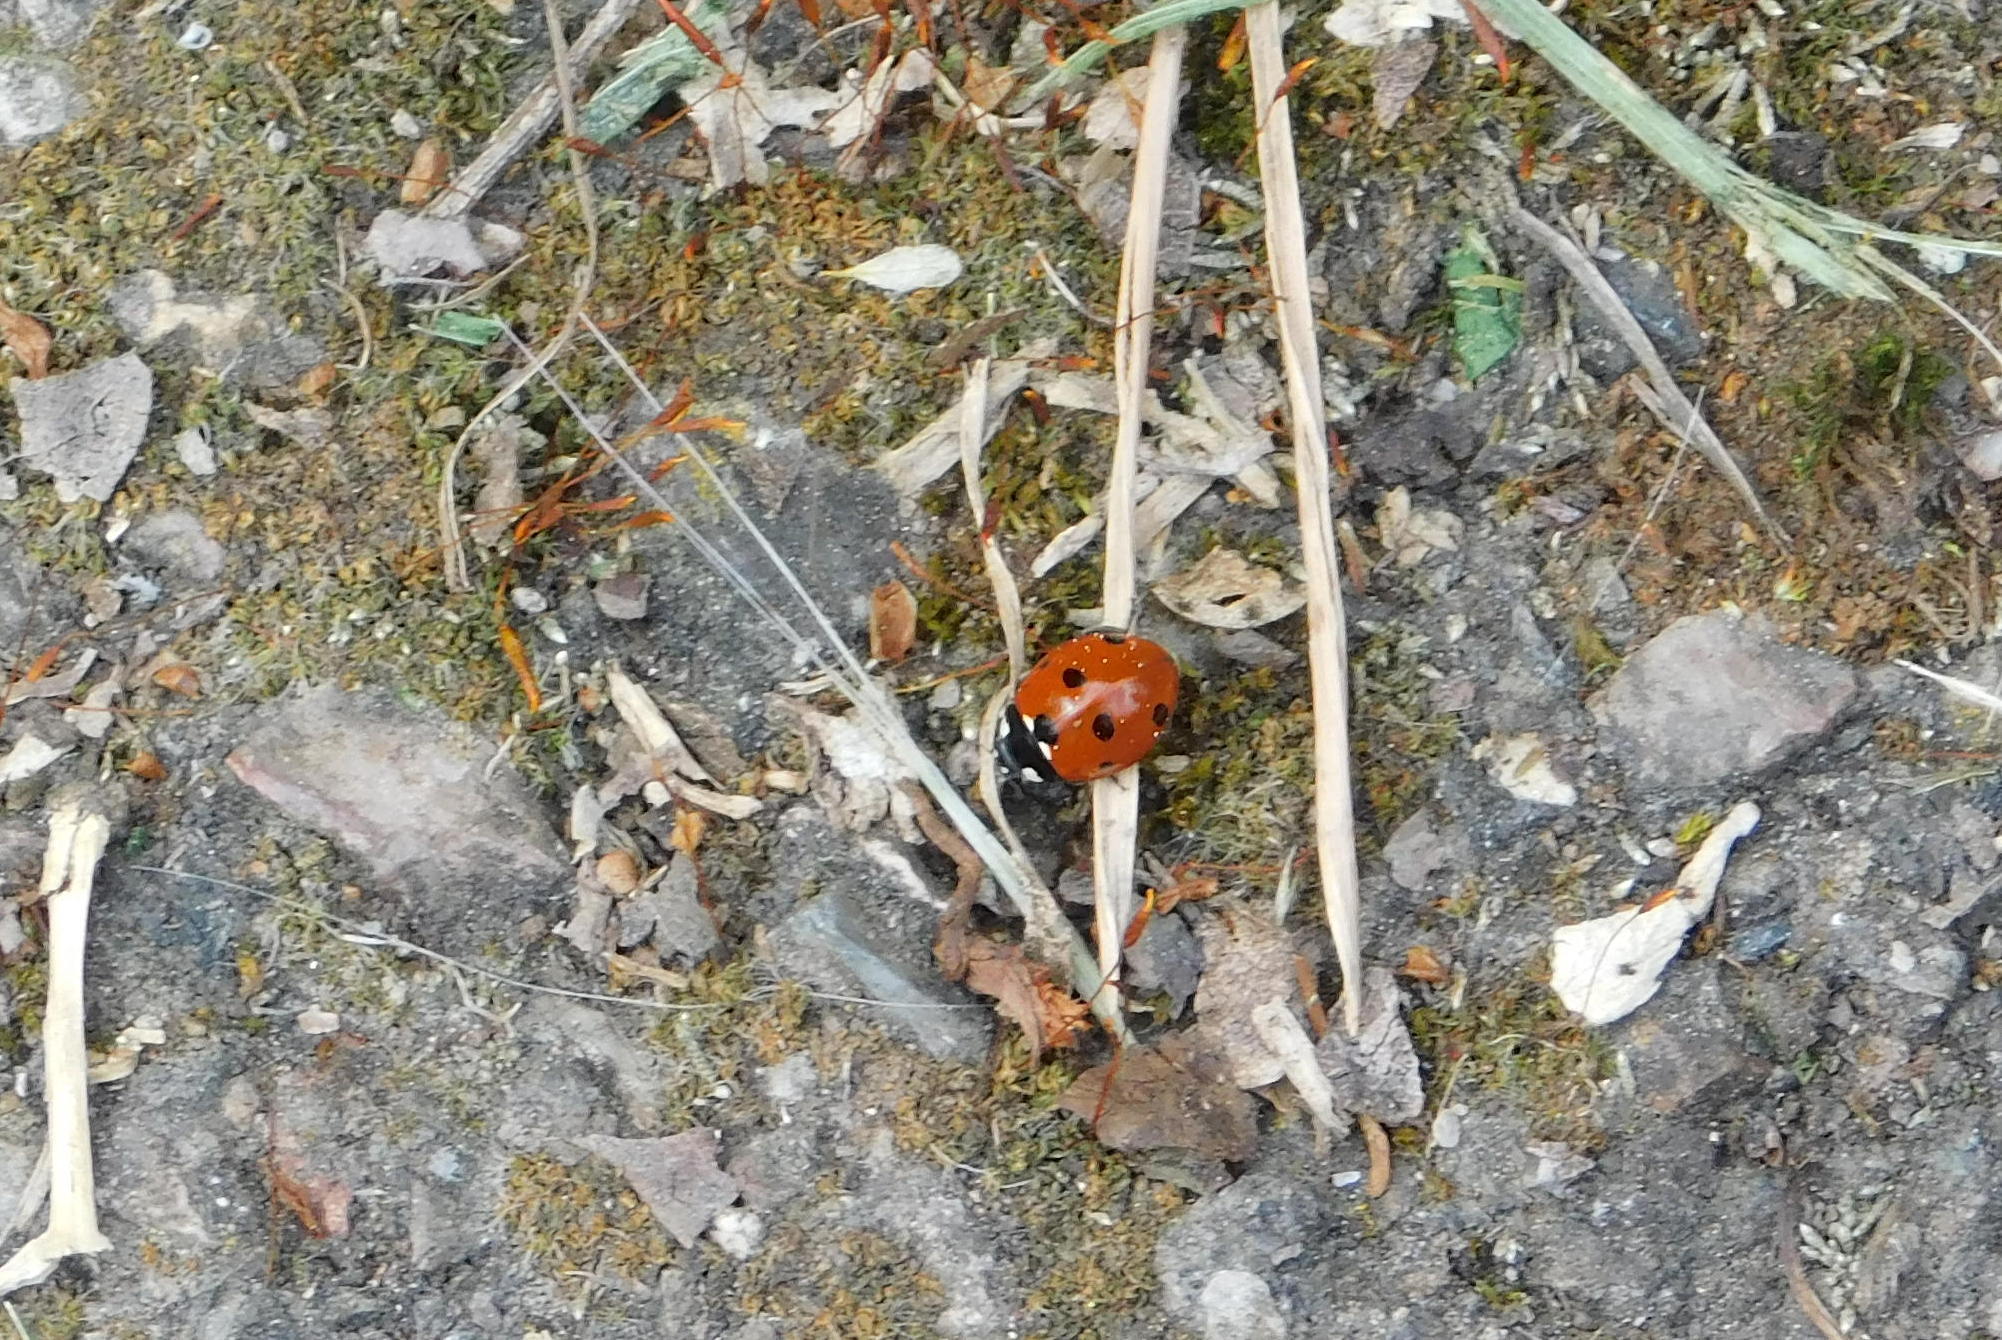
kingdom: Animalia
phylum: Arthropoda
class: Insecta
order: Coleoptera
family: Coccinellidae
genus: Coccinella
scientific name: Coccinella septempunctata
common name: Sevenspotted lady beetle
